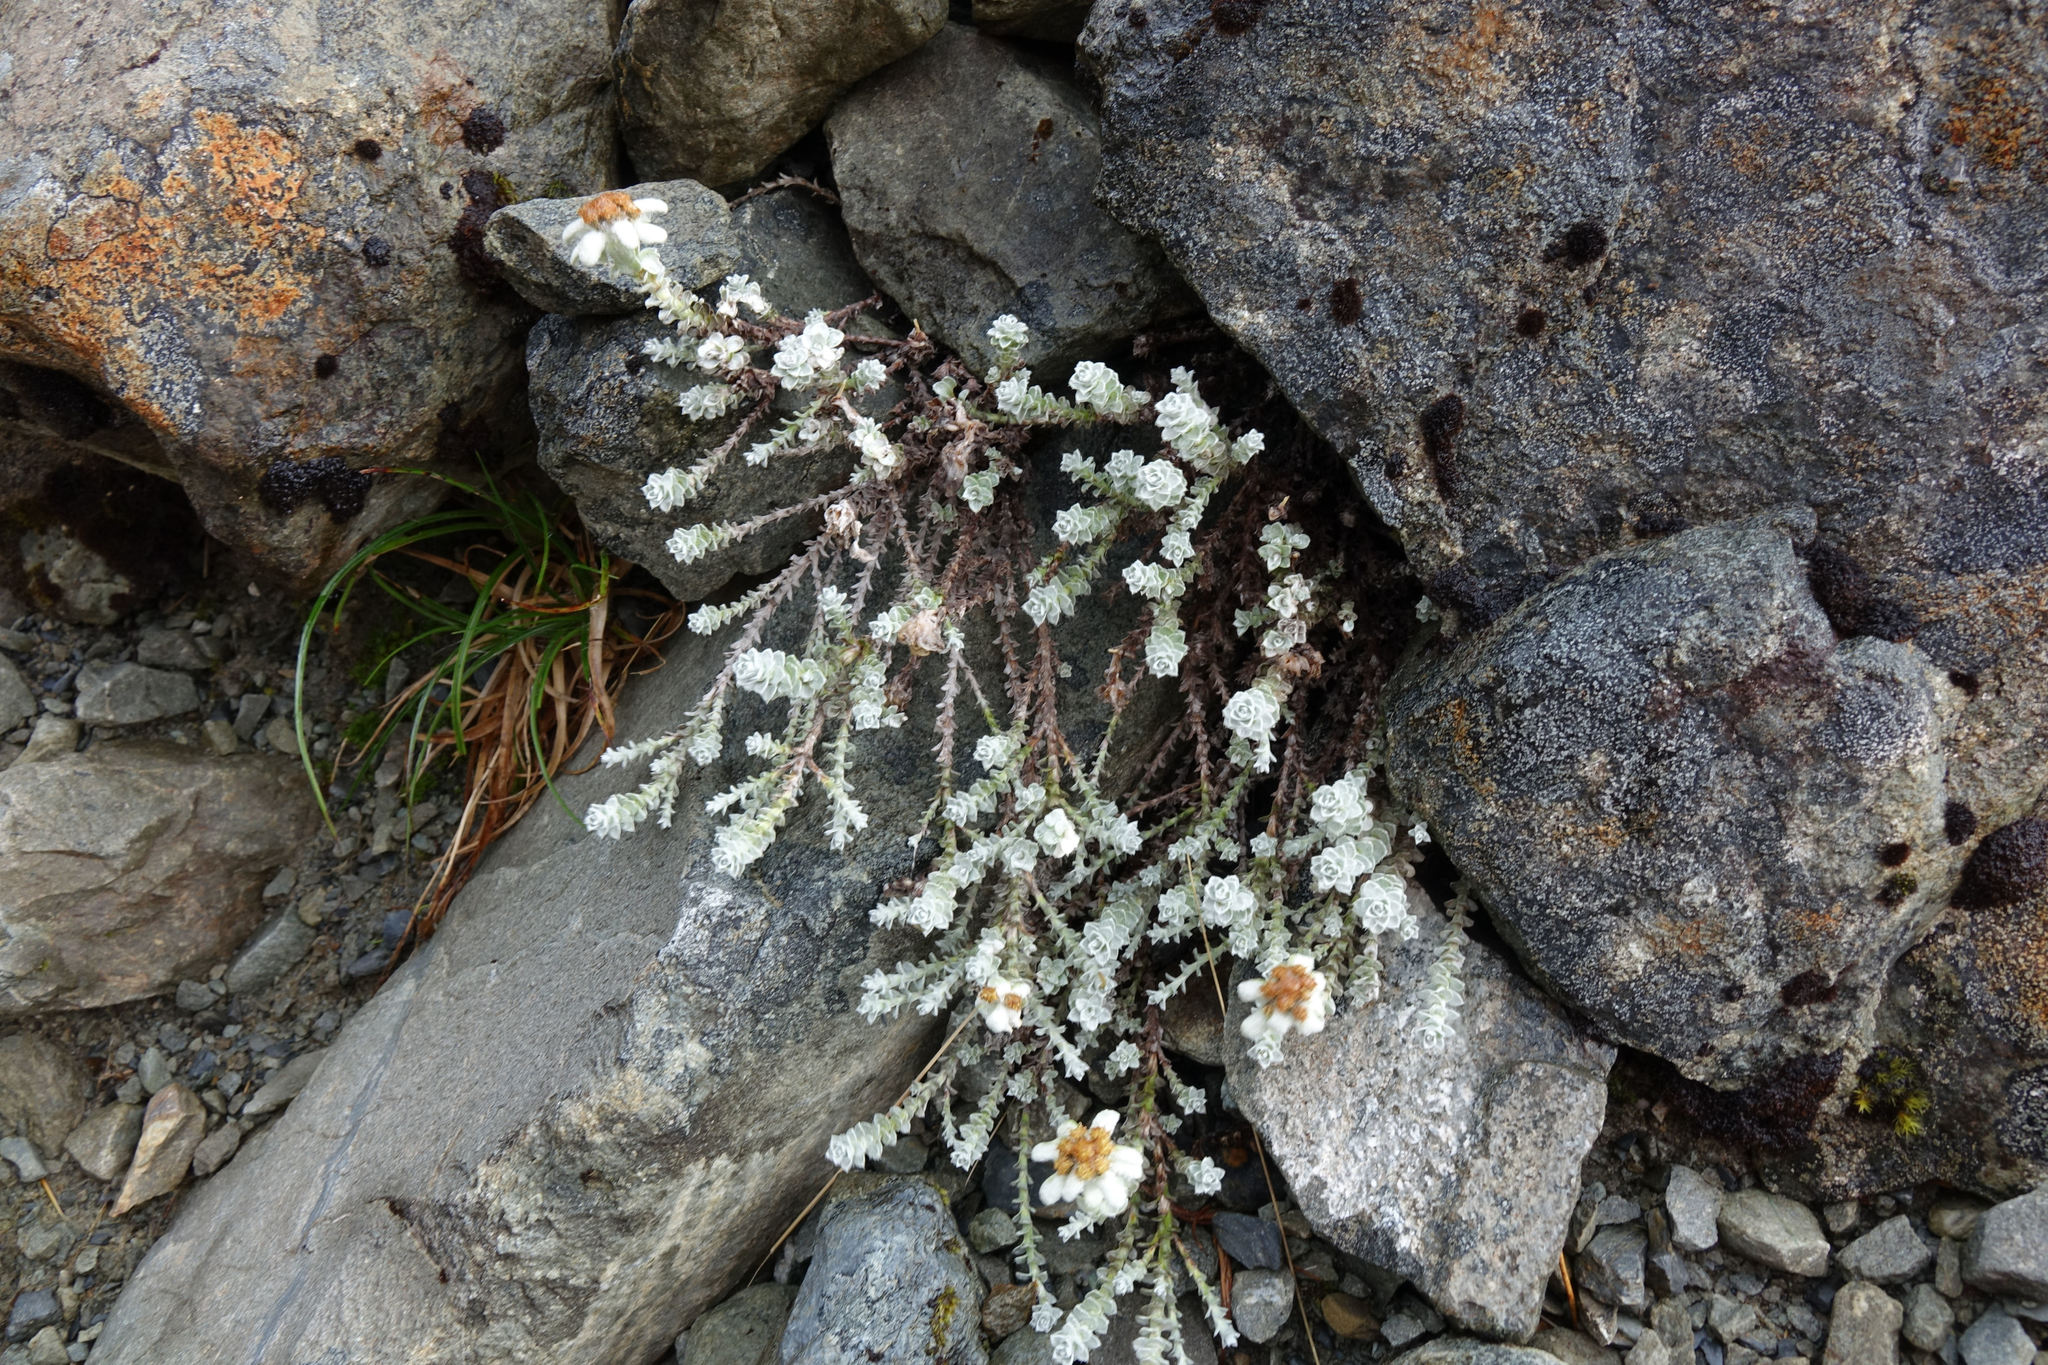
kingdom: Plantae
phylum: Tracheophyta
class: Magnoliopsida
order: Asterales
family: Asteraceae
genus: Leucogenes
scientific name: Leucogenes grandiceps
